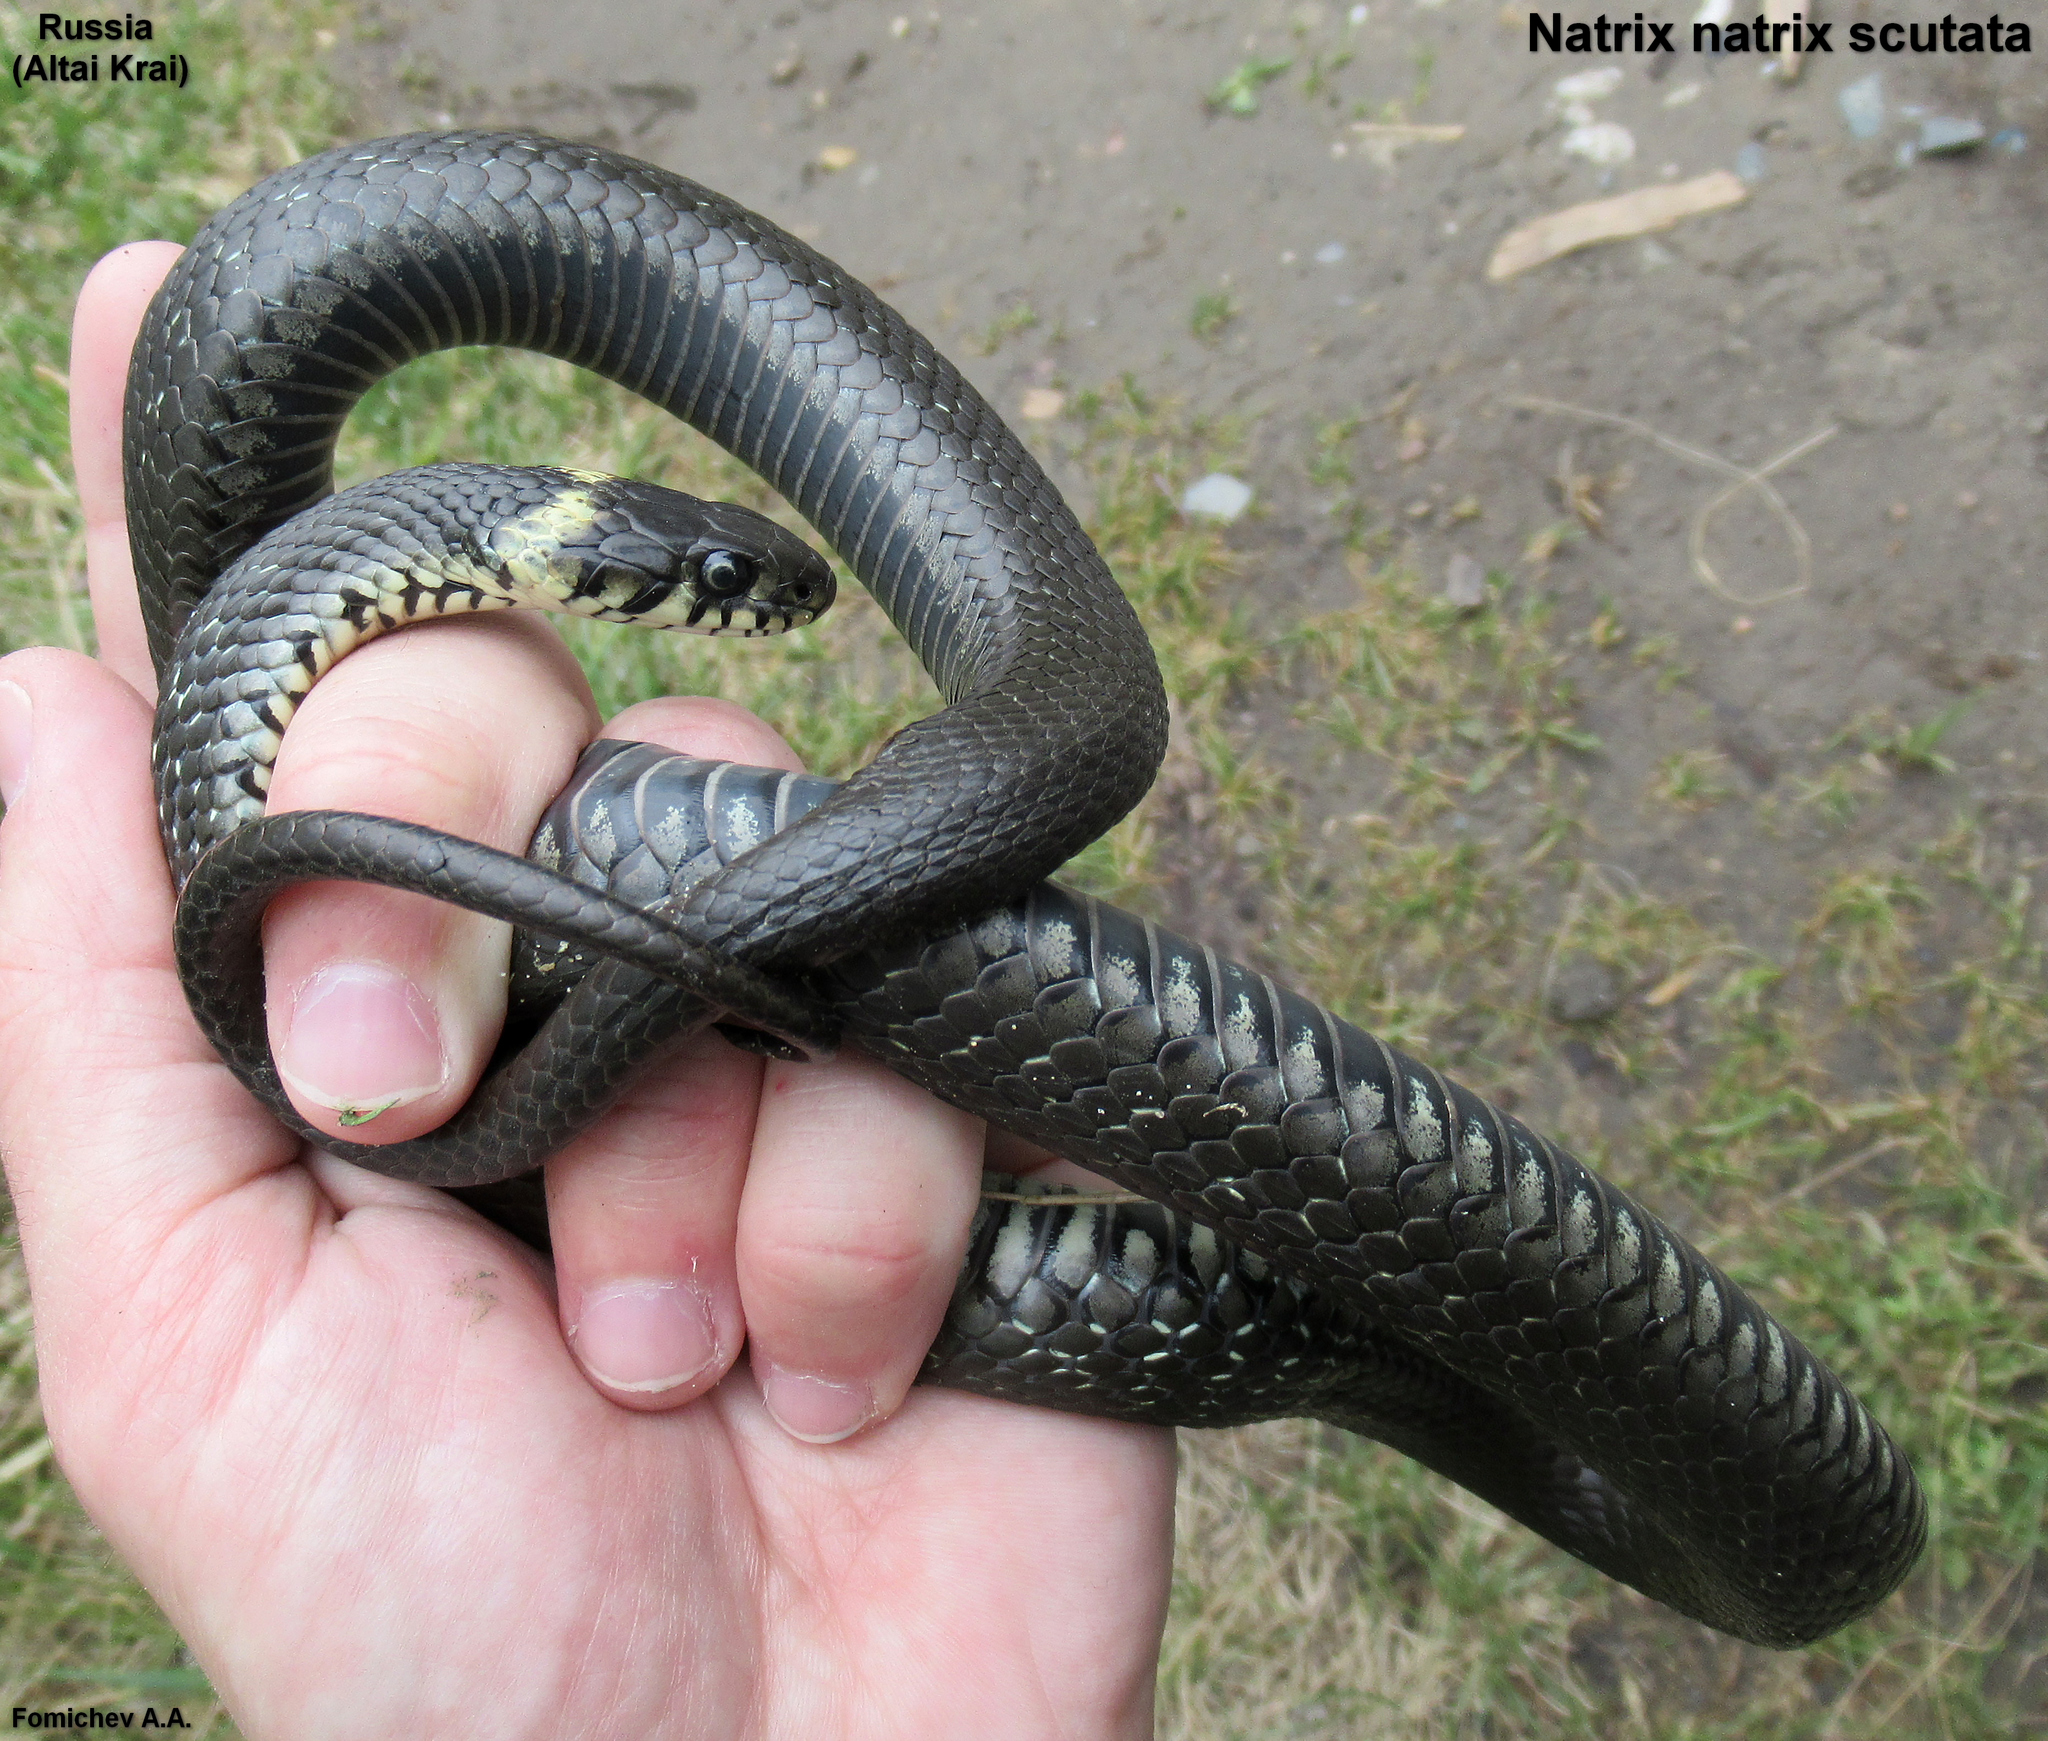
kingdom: Animalia
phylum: Chordata
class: Squamata
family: Colubridae
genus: Natrix
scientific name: Natrix natrix
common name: Grass snake
